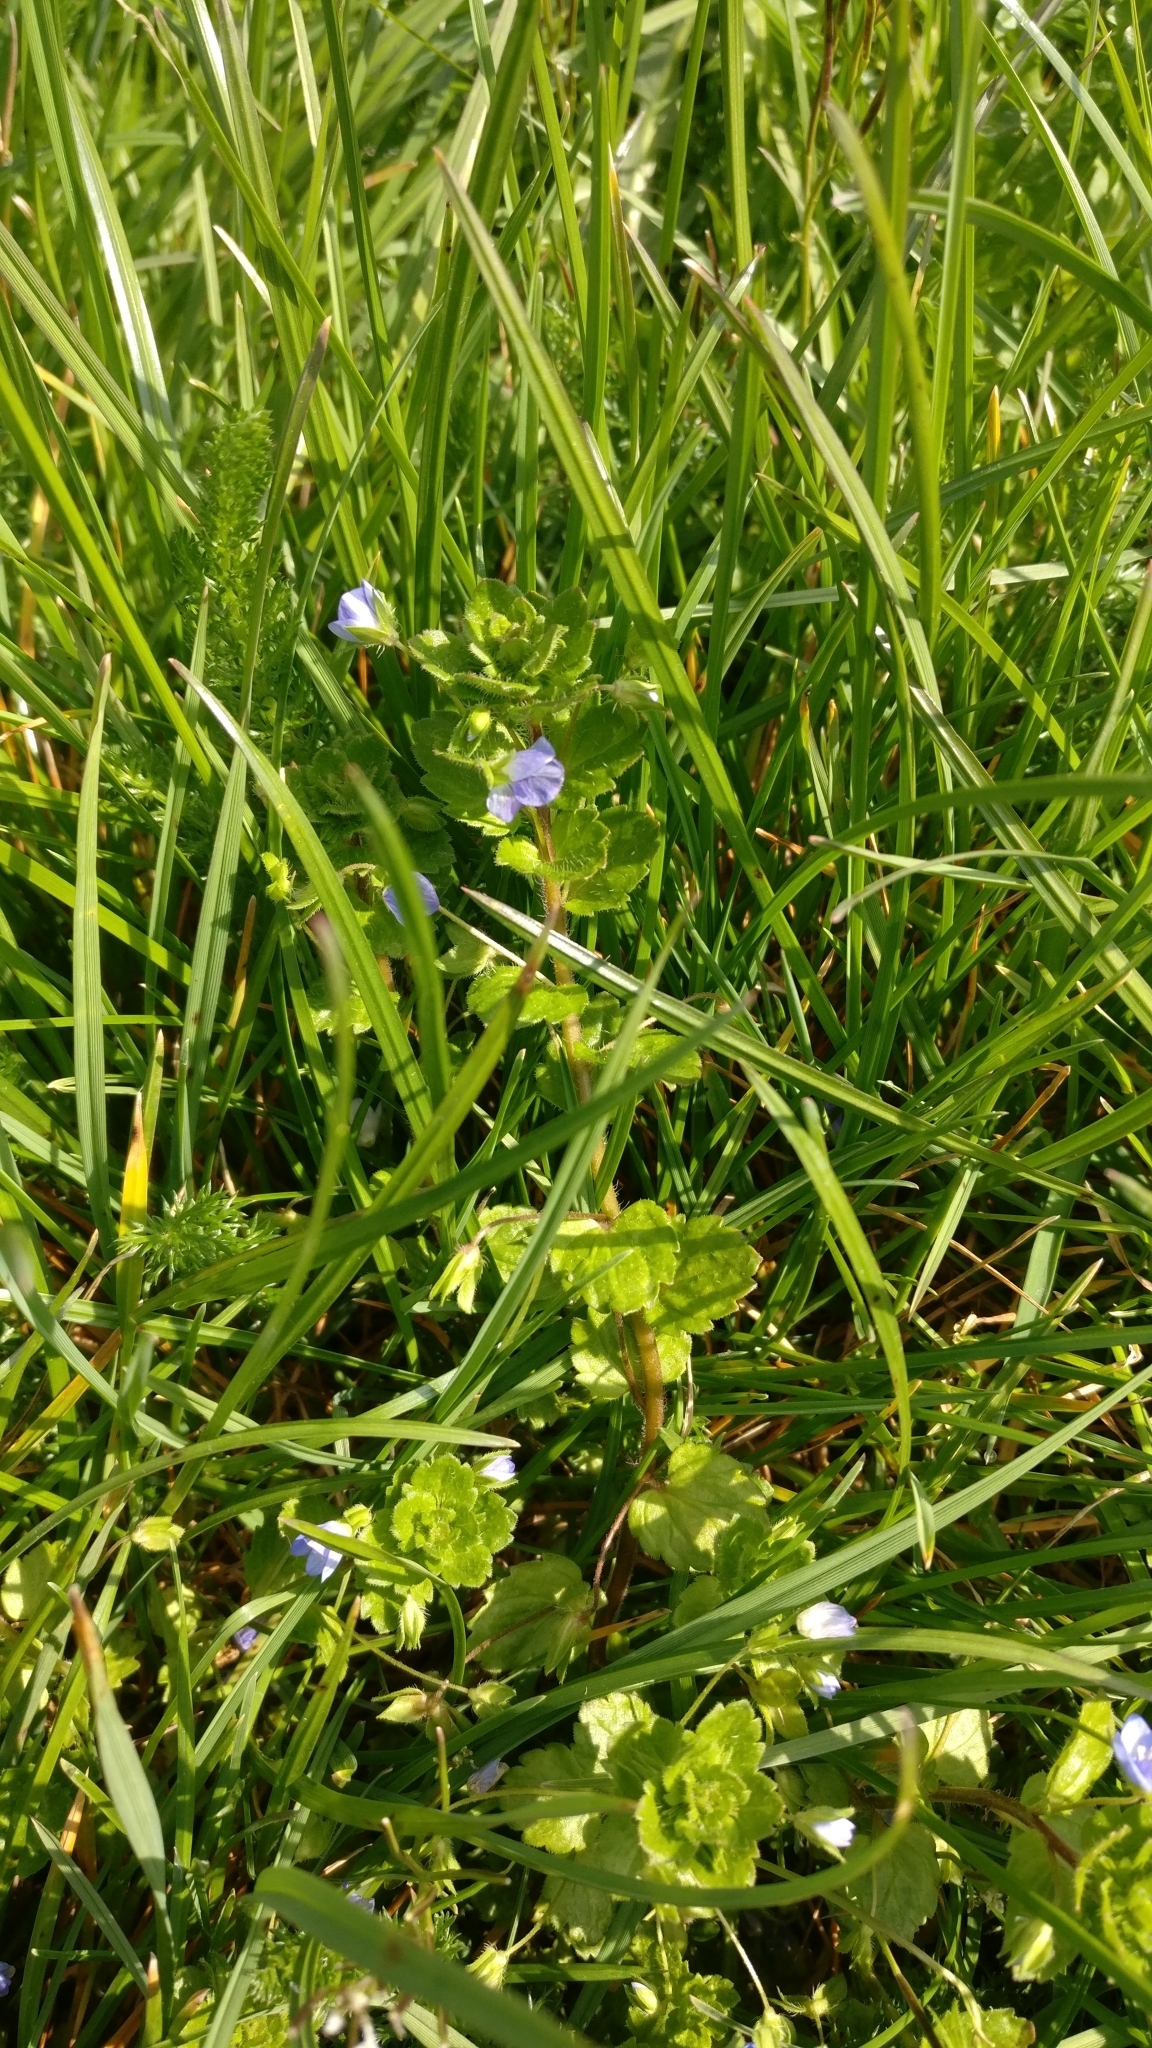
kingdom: Plantae
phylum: Tracheophyta
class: Magnoliopsida
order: Lamiales
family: Plantaginaceae
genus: Veronica
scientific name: Veronica persica
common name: Common field-speedwell
